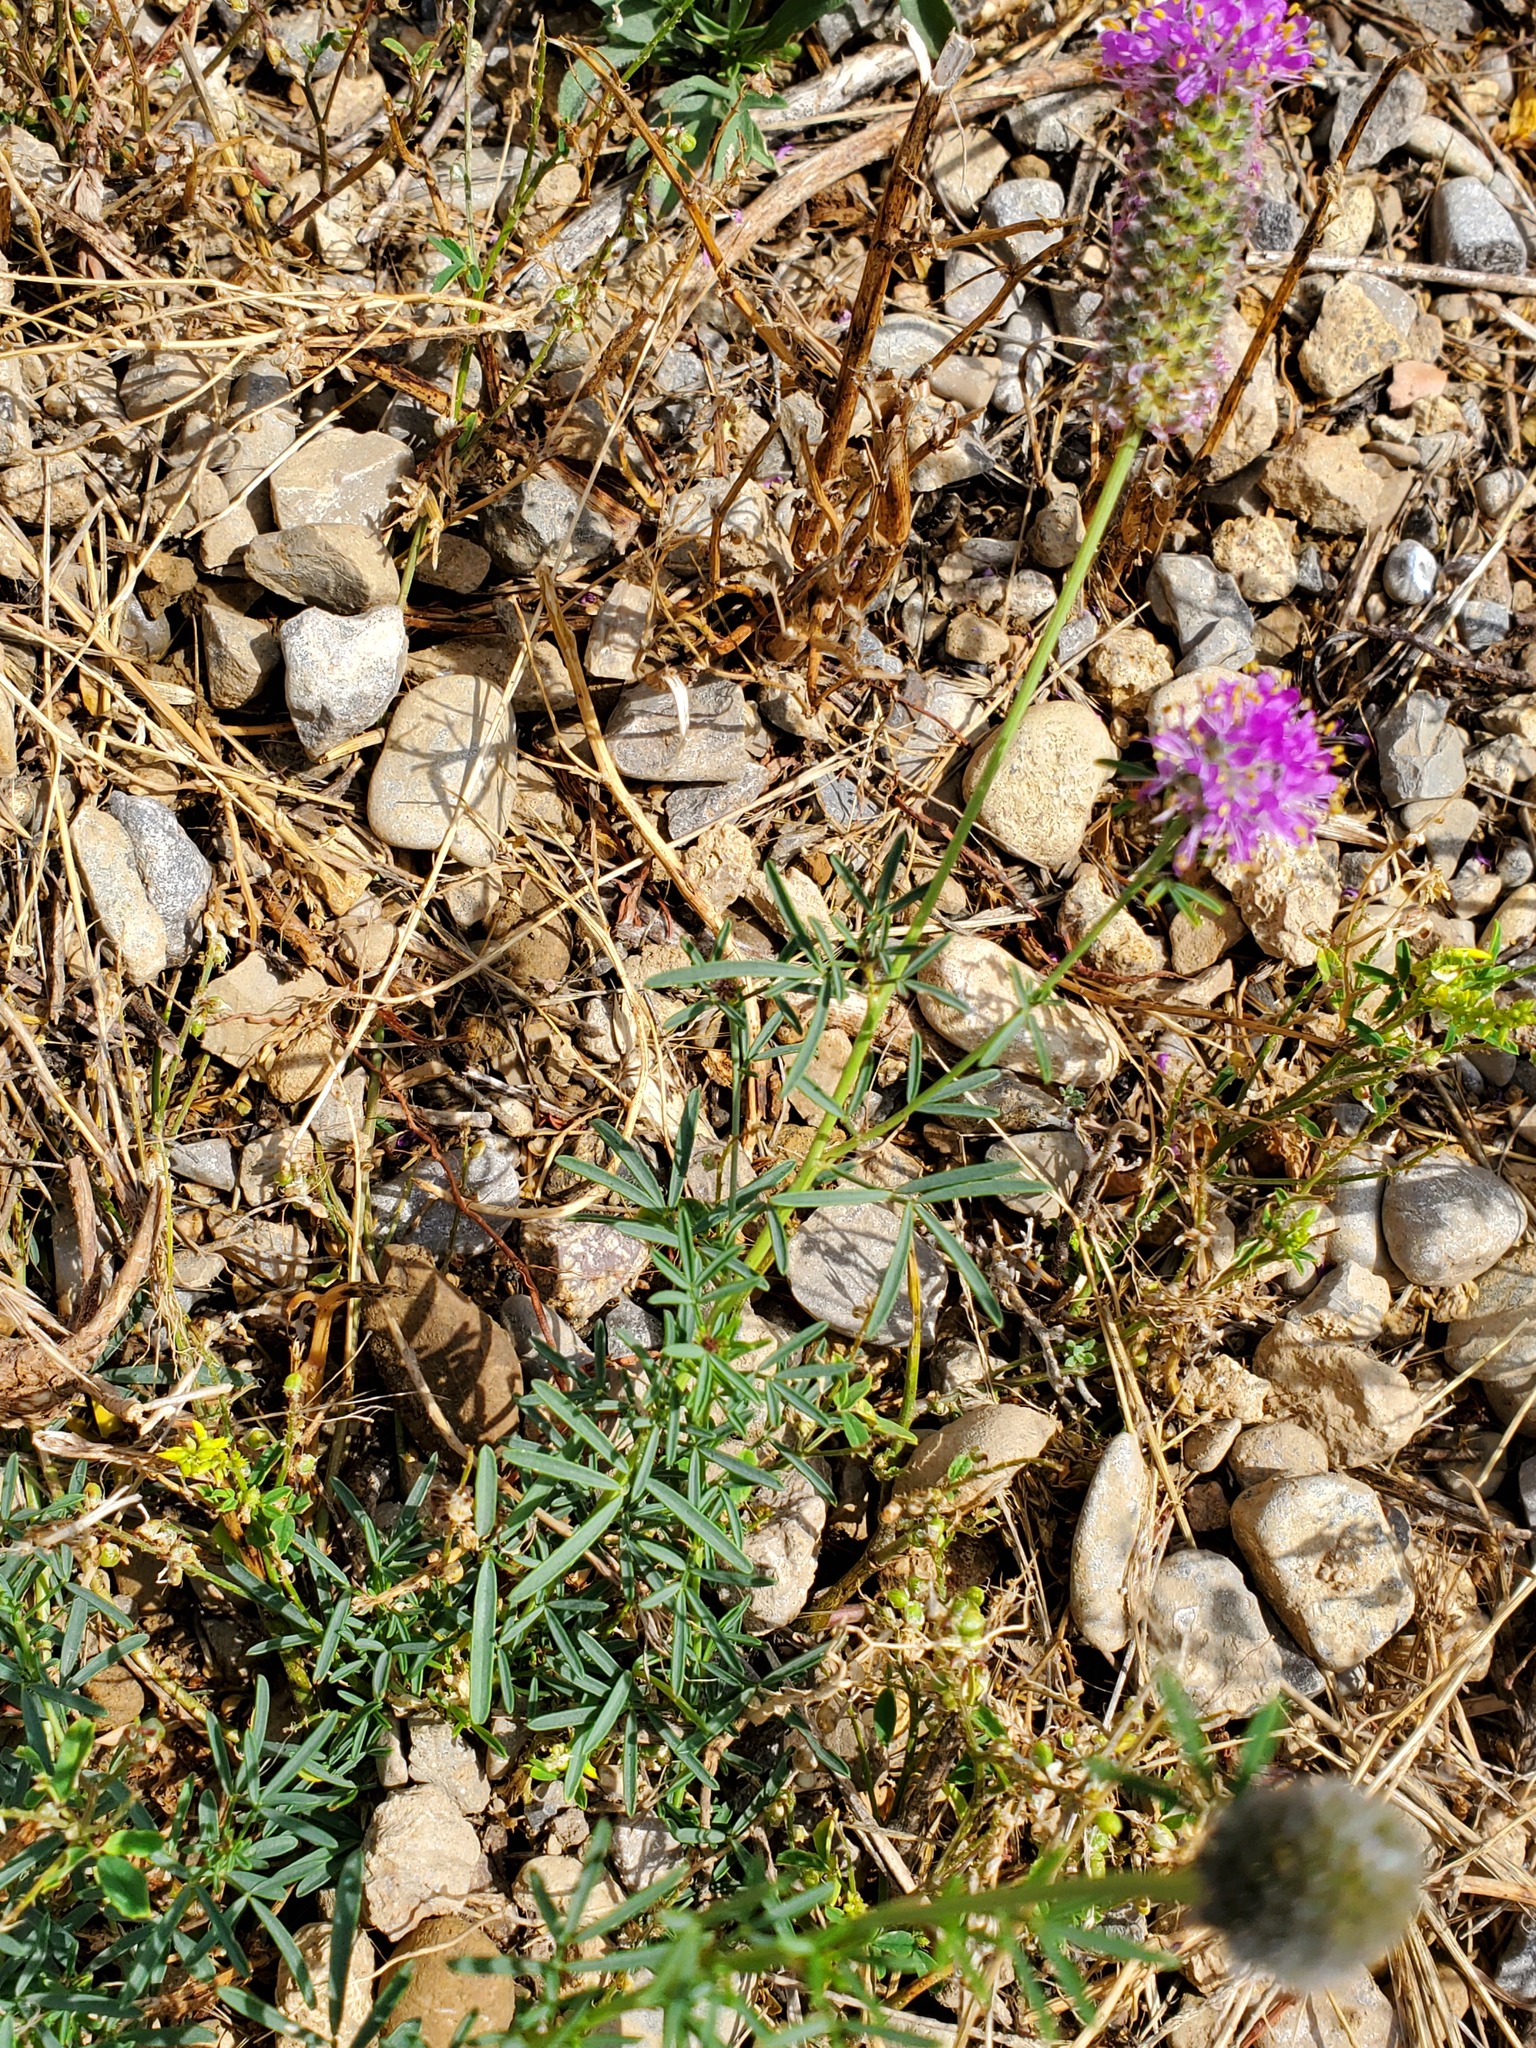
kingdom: Plantae
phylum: Tracheophyta
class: Magnoliopsida
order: Fabales
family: Fabaceae
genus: Dalea
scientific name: Dalea purpurea
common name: Purple prairie-clover
